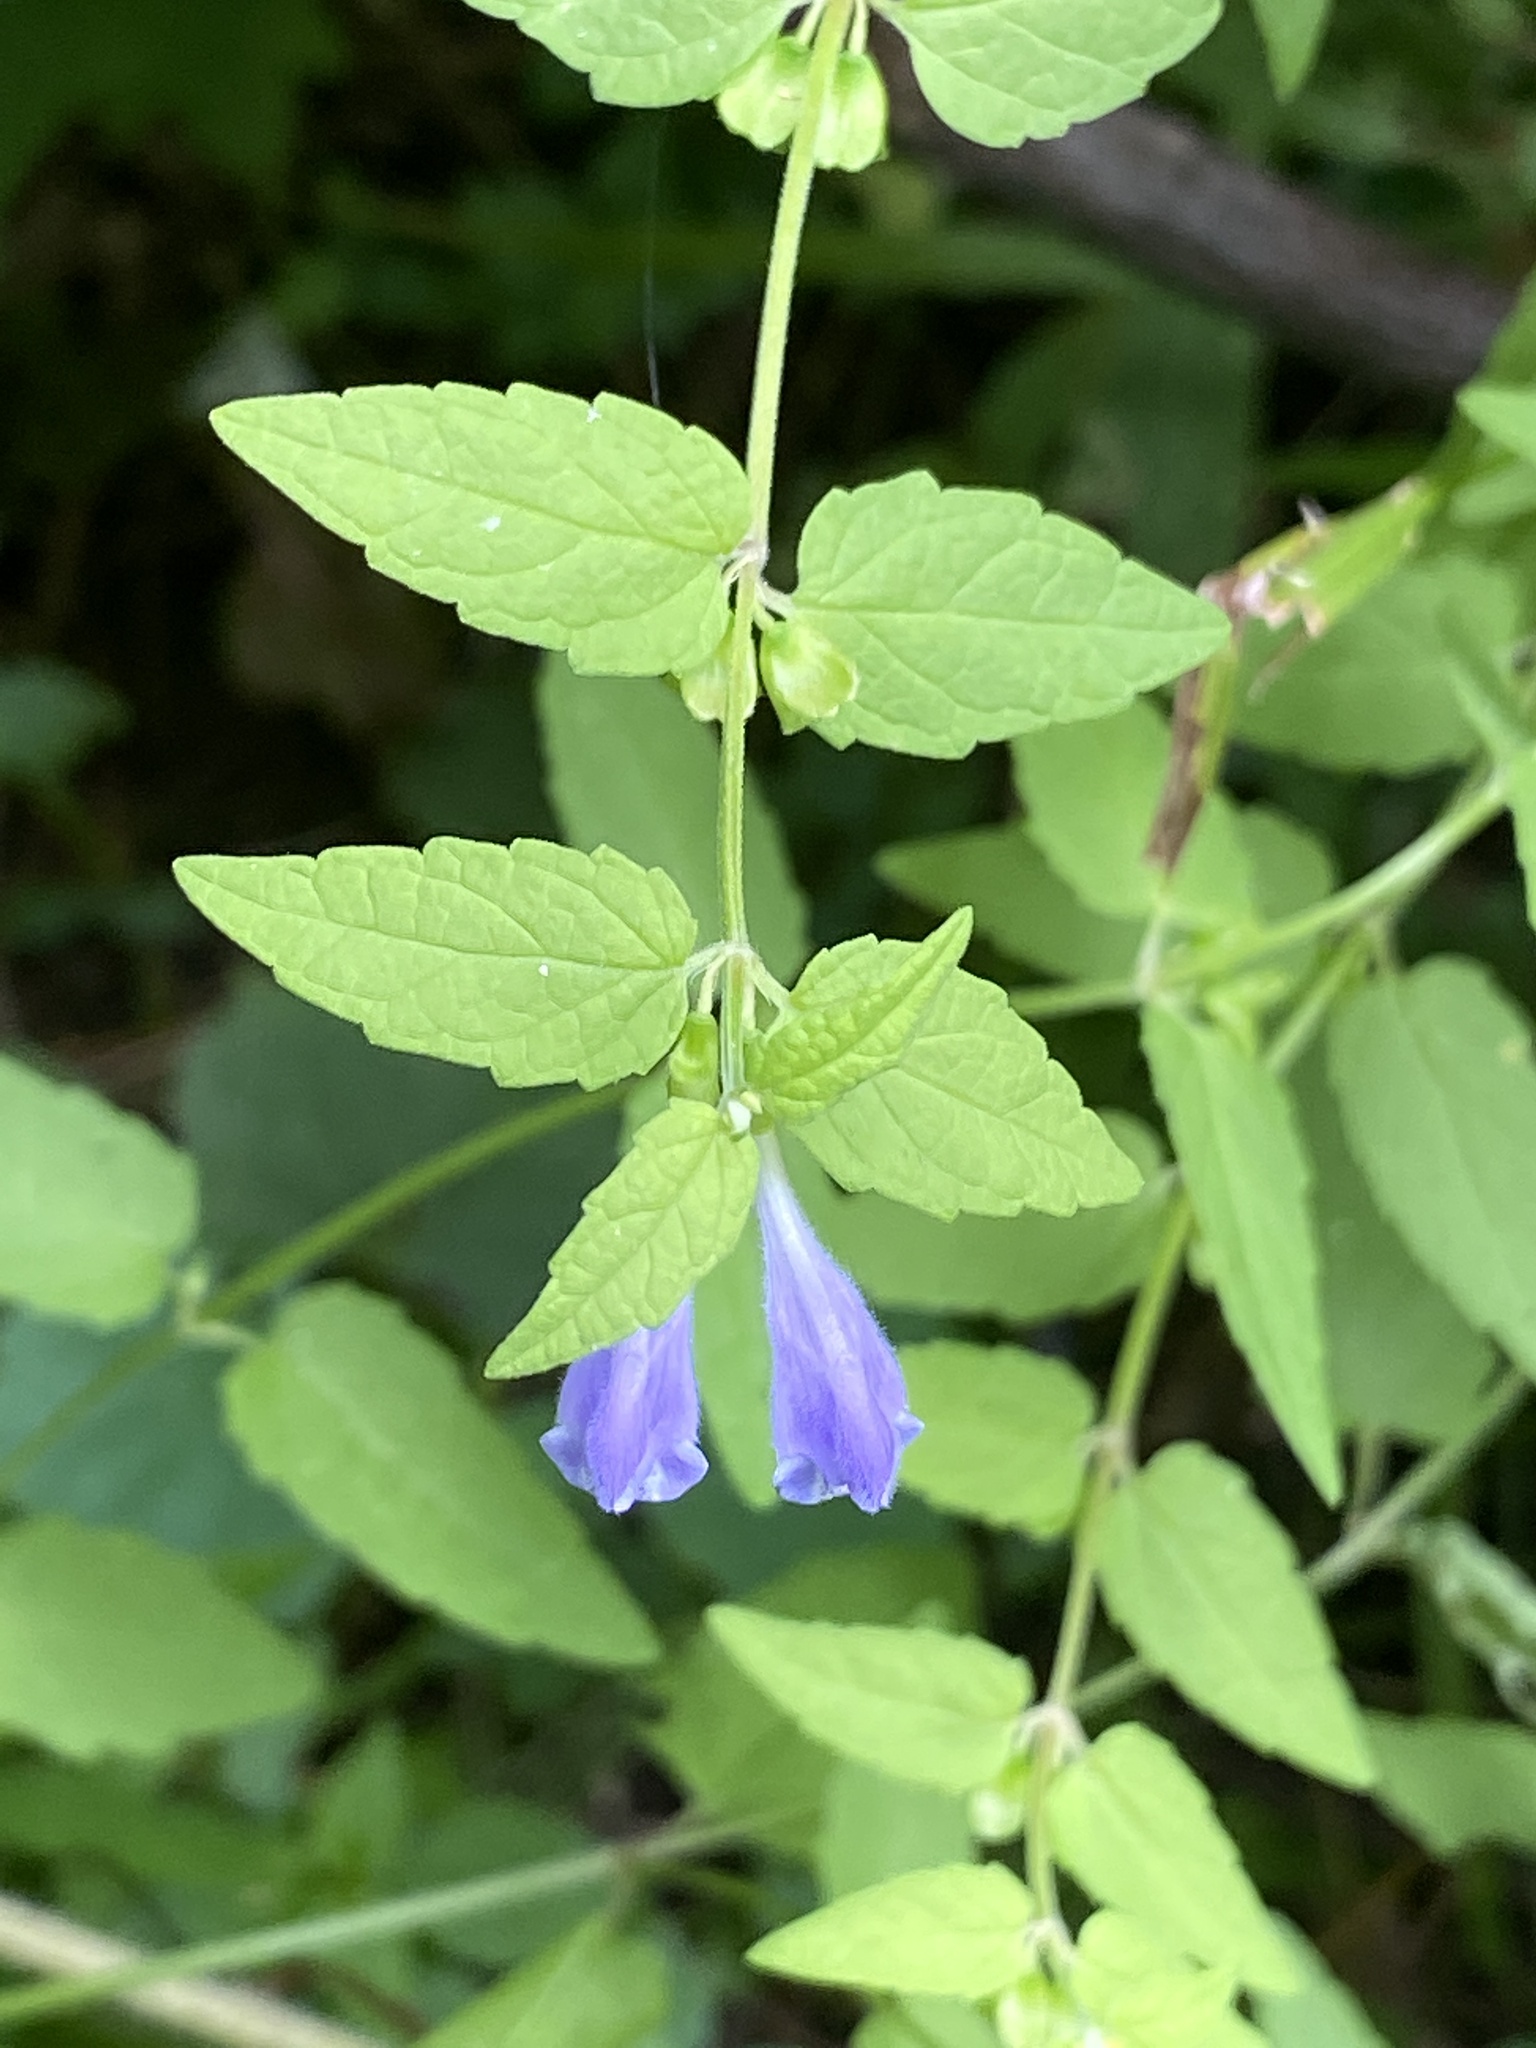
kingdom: Plantae
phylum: Tracheophyta
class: Magnoliopsida
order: Lamiales
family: Lamiaceae
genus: Scutellaria
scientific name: Scutellaria galericulata
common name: Skullcap
